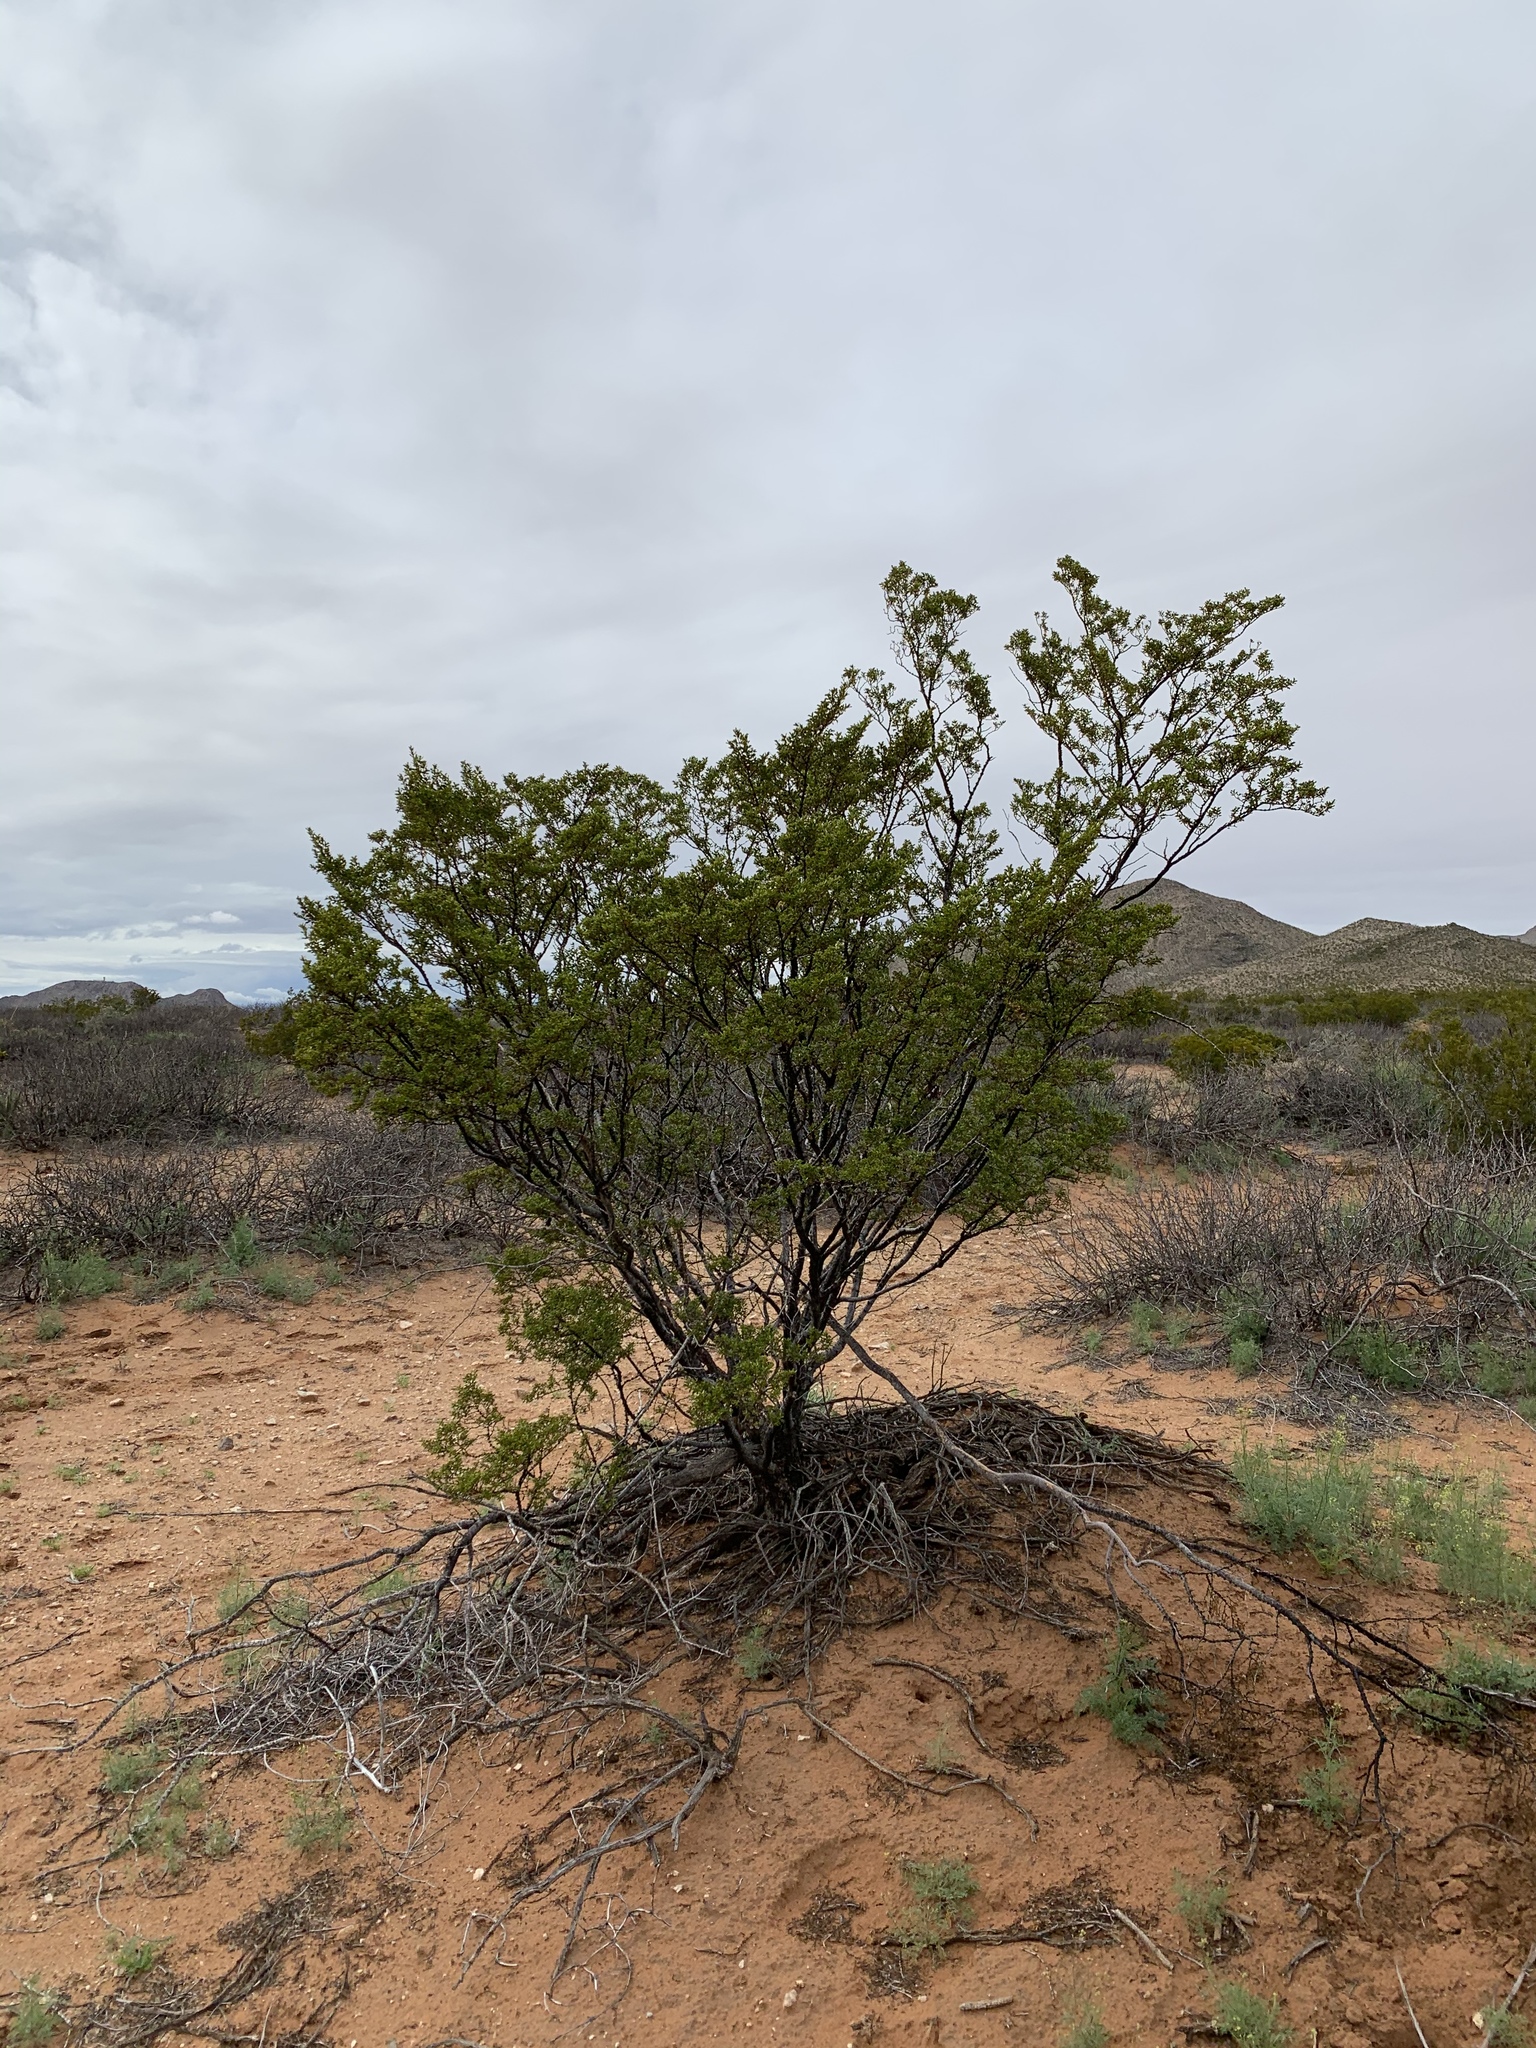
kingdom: Plantae
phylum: Tracheophyta
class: Magnoliopsida
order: Zygophyllales
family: Zygophyllaceae
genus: Larrea
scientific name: Larrea tridentata
